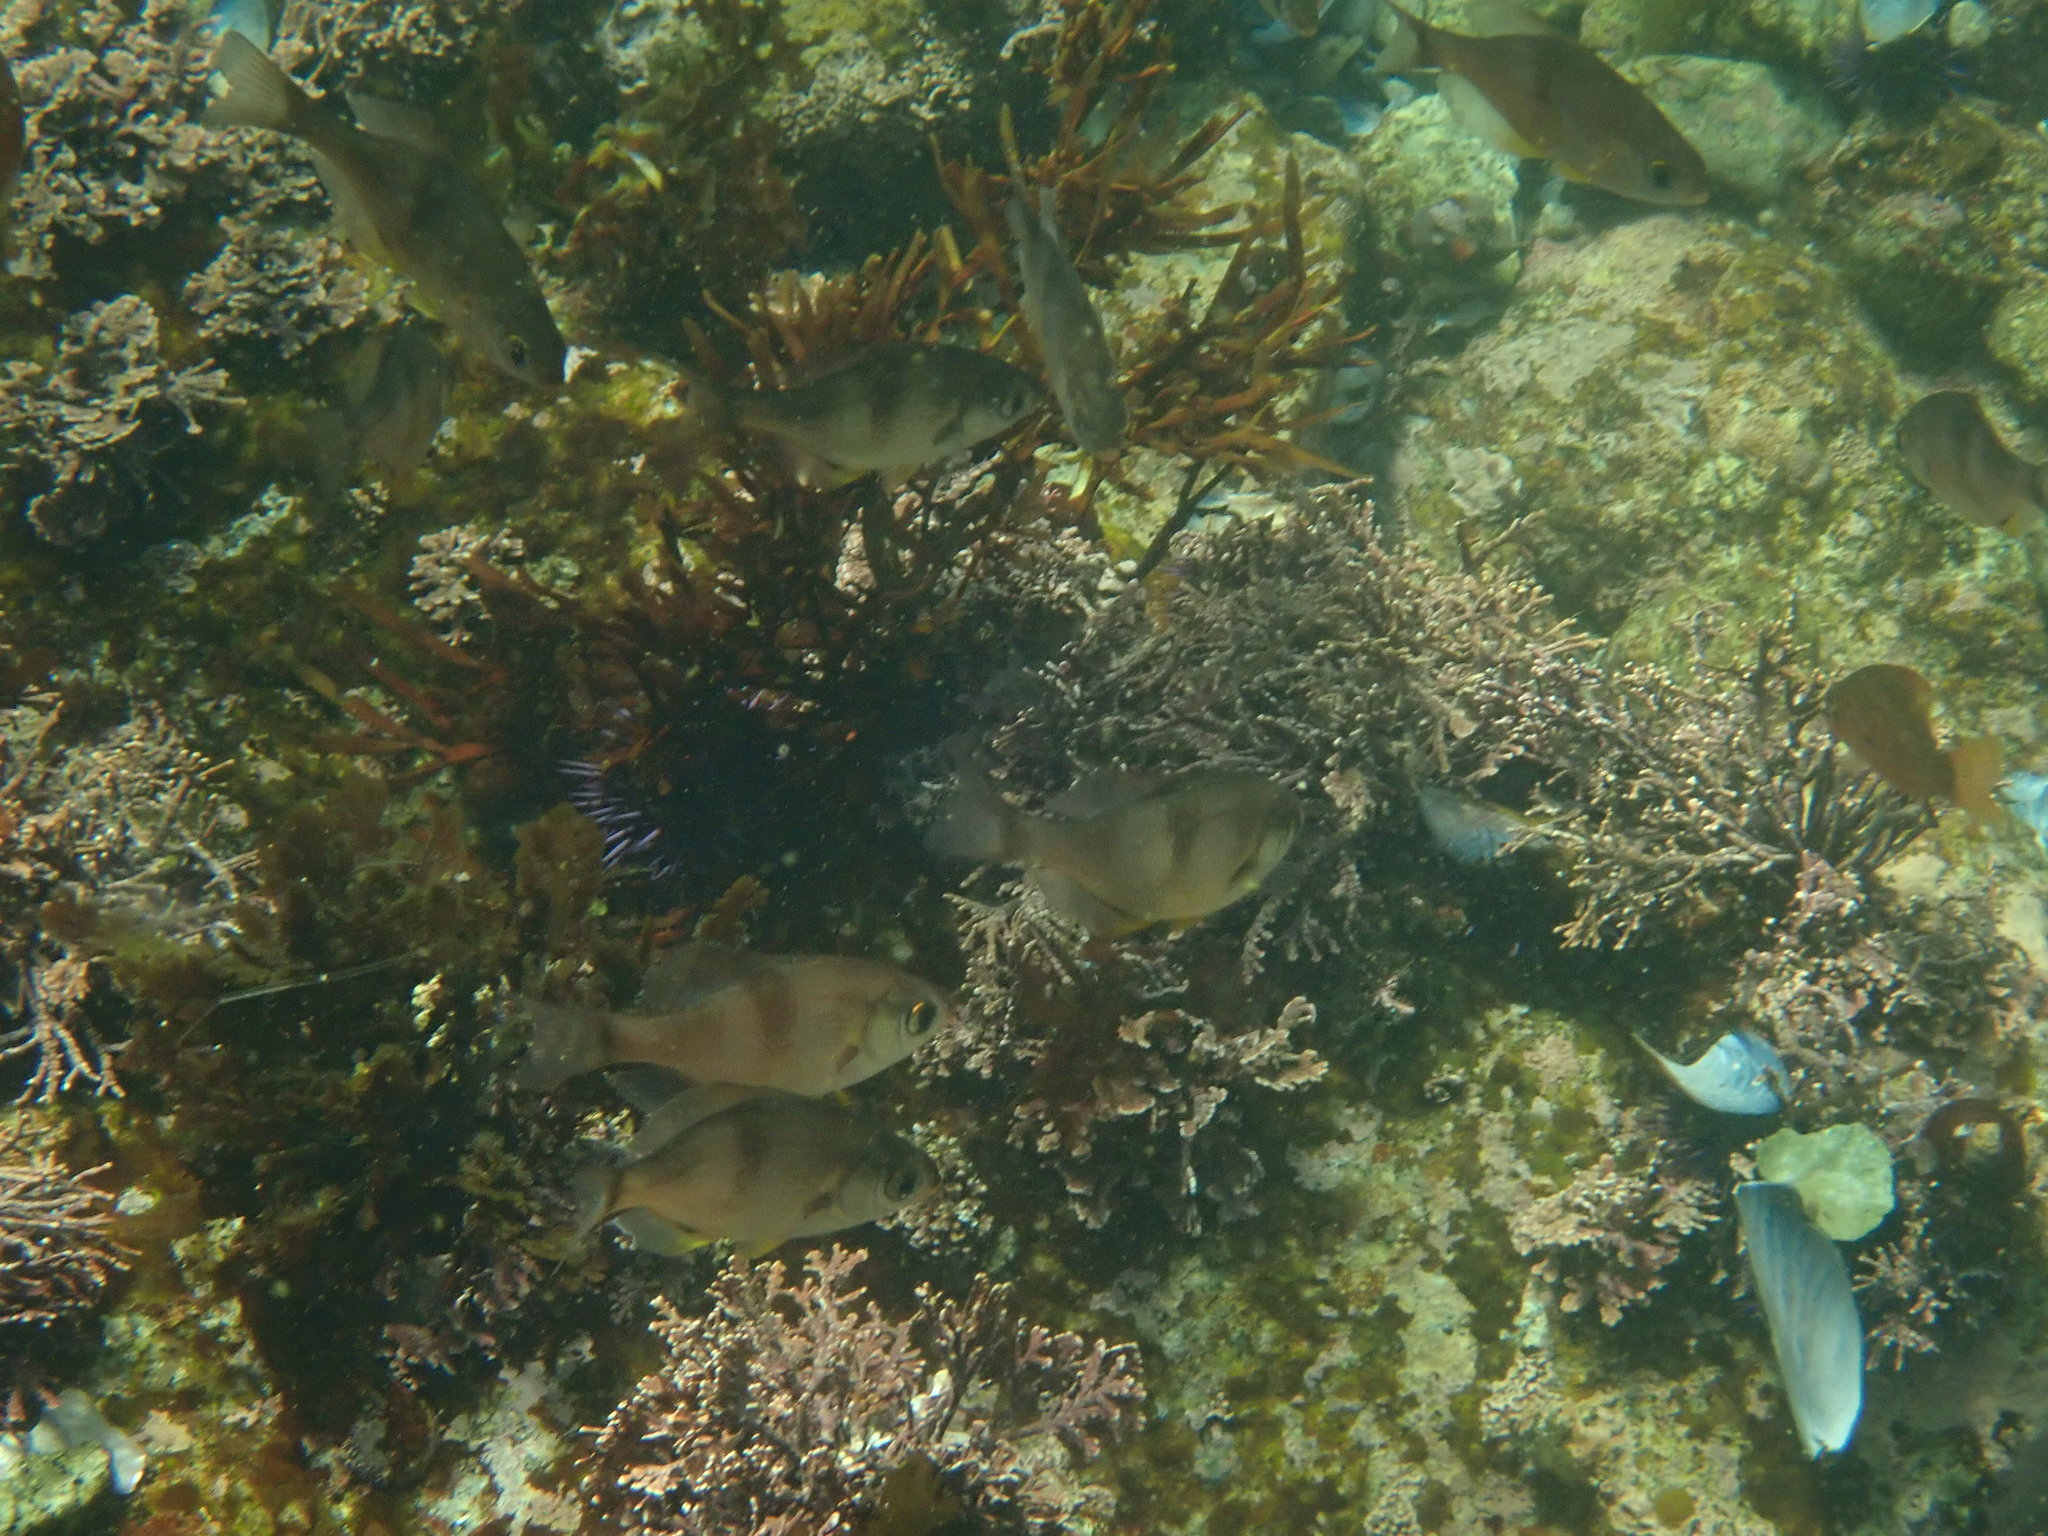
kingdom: Animalia
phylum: Chordata
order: Perciformes
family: Embiotocidae
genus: Rhacochilus
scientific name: Rhacochilus vacca
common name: Pile perch
